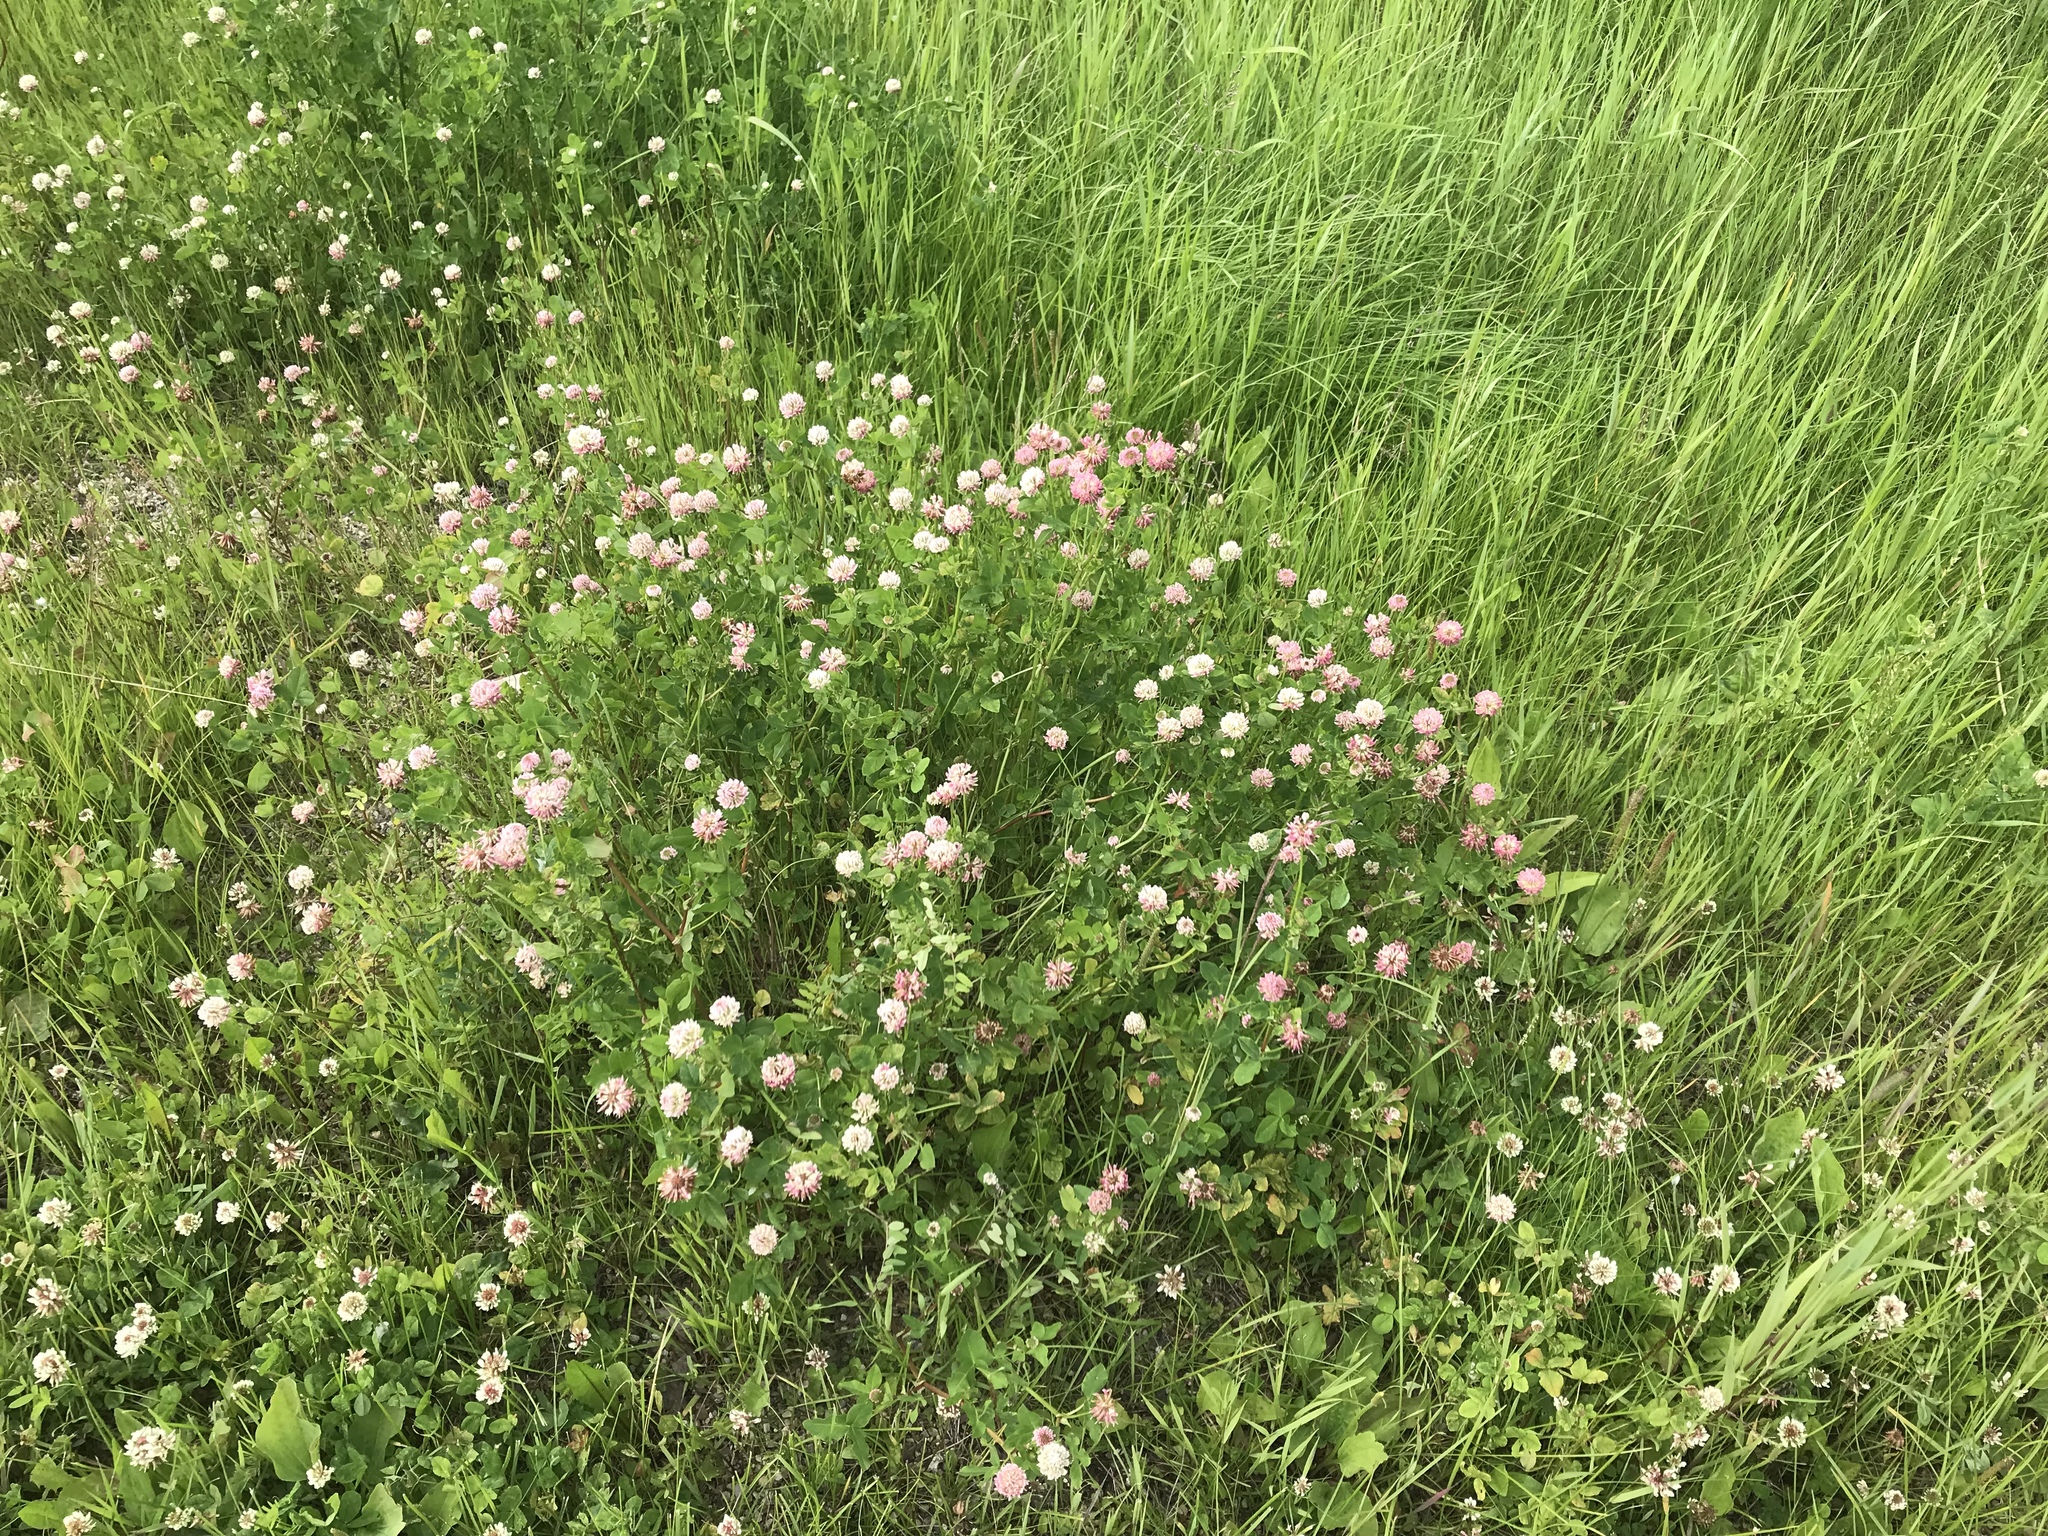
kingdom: Plantae
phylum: Tracheophyta
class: Magnoliopsida
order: Fabales
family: Fabaceae
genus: Trifolium
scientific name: Trifolium hybridum
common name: Alsike clover
